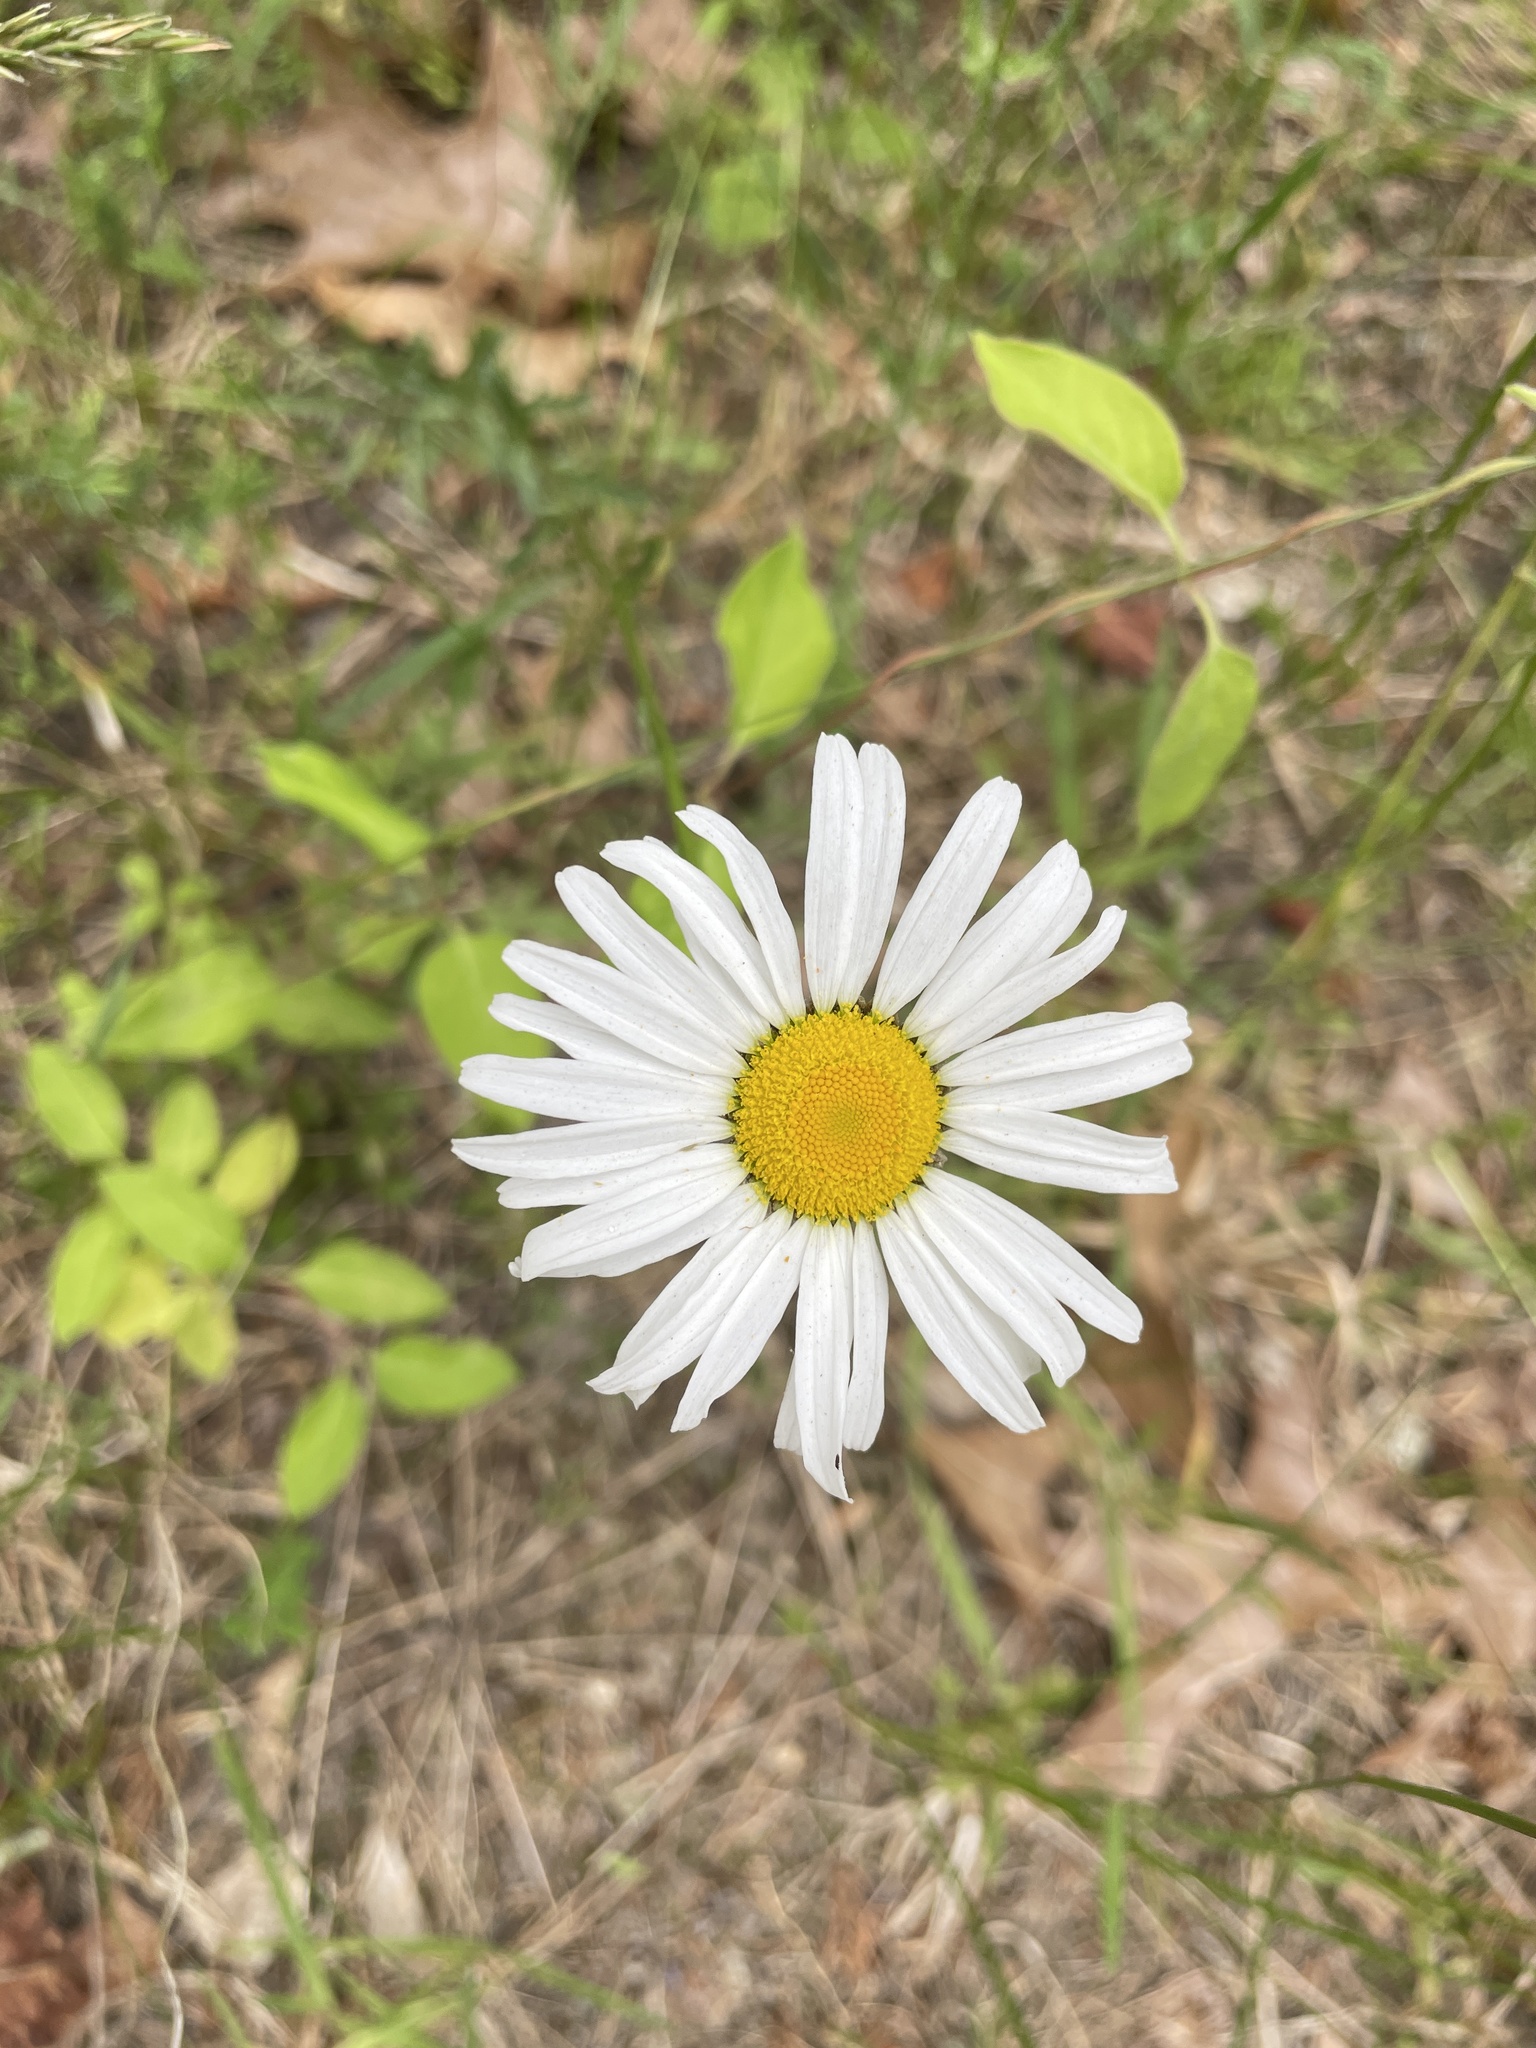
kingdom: Plantae
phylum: Tracheophyta
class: Magnoliopsida
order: Asterales
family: Asteraceae
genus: Leucanthemum
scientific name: Leucanthemum vulgare
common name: Oxeye daisy
